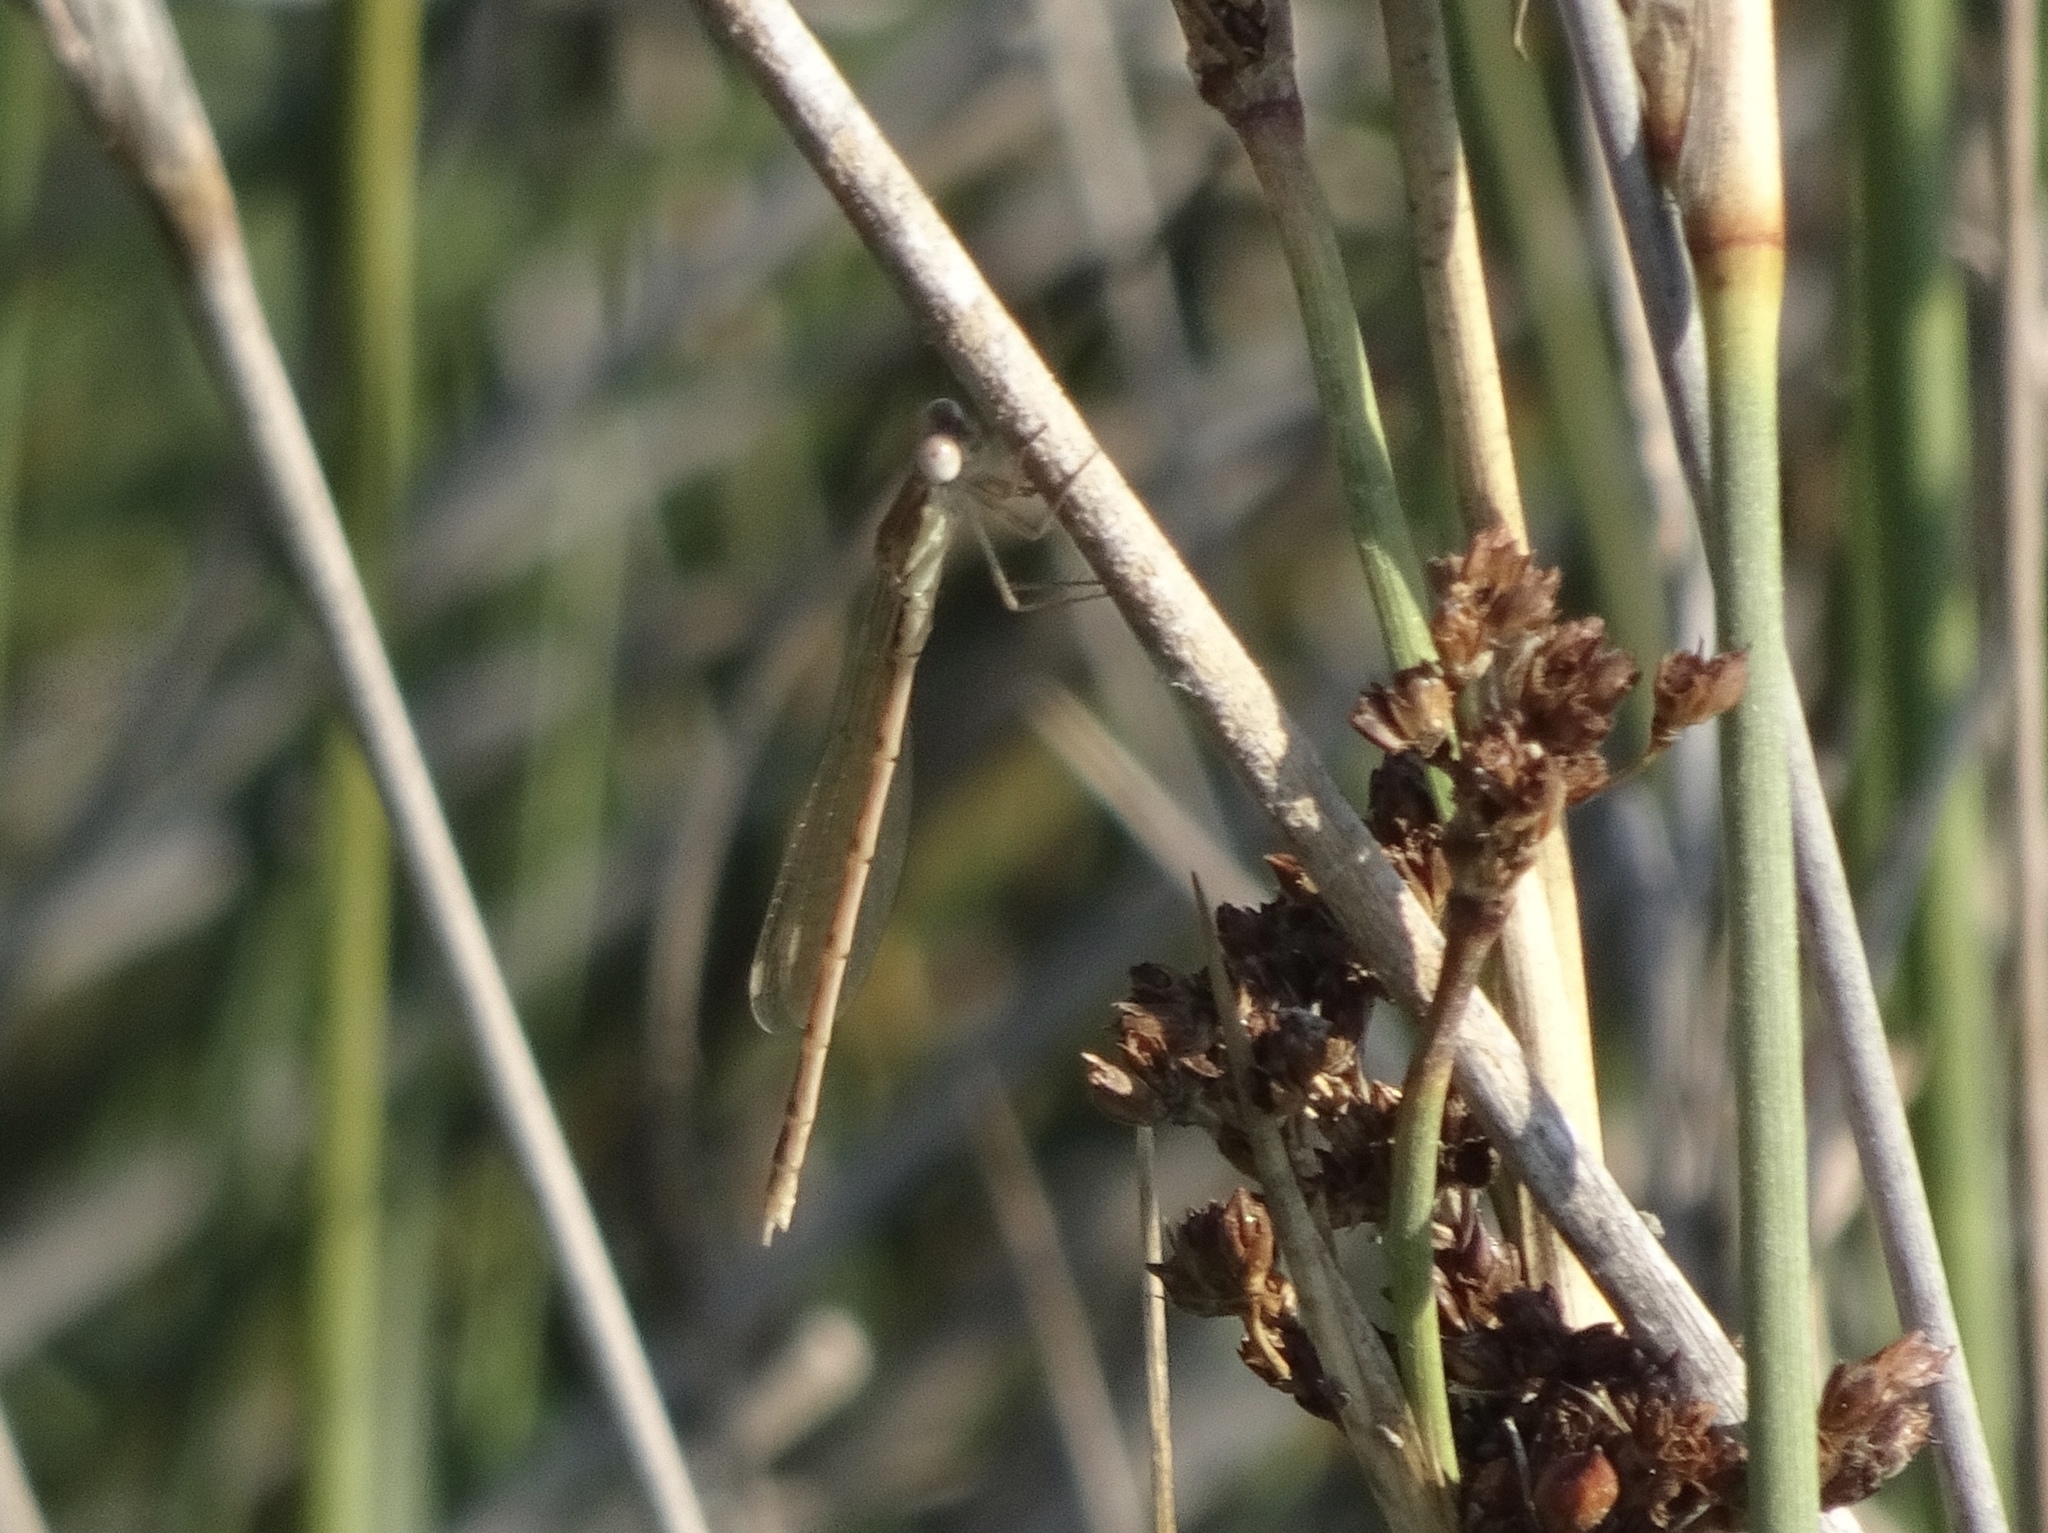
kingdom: Animalia
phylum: Arthropoda
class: Insecta
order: Odonata
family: Lestidae
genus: Sympecma
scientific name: Sympecma fusca
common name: Common winter damsel
